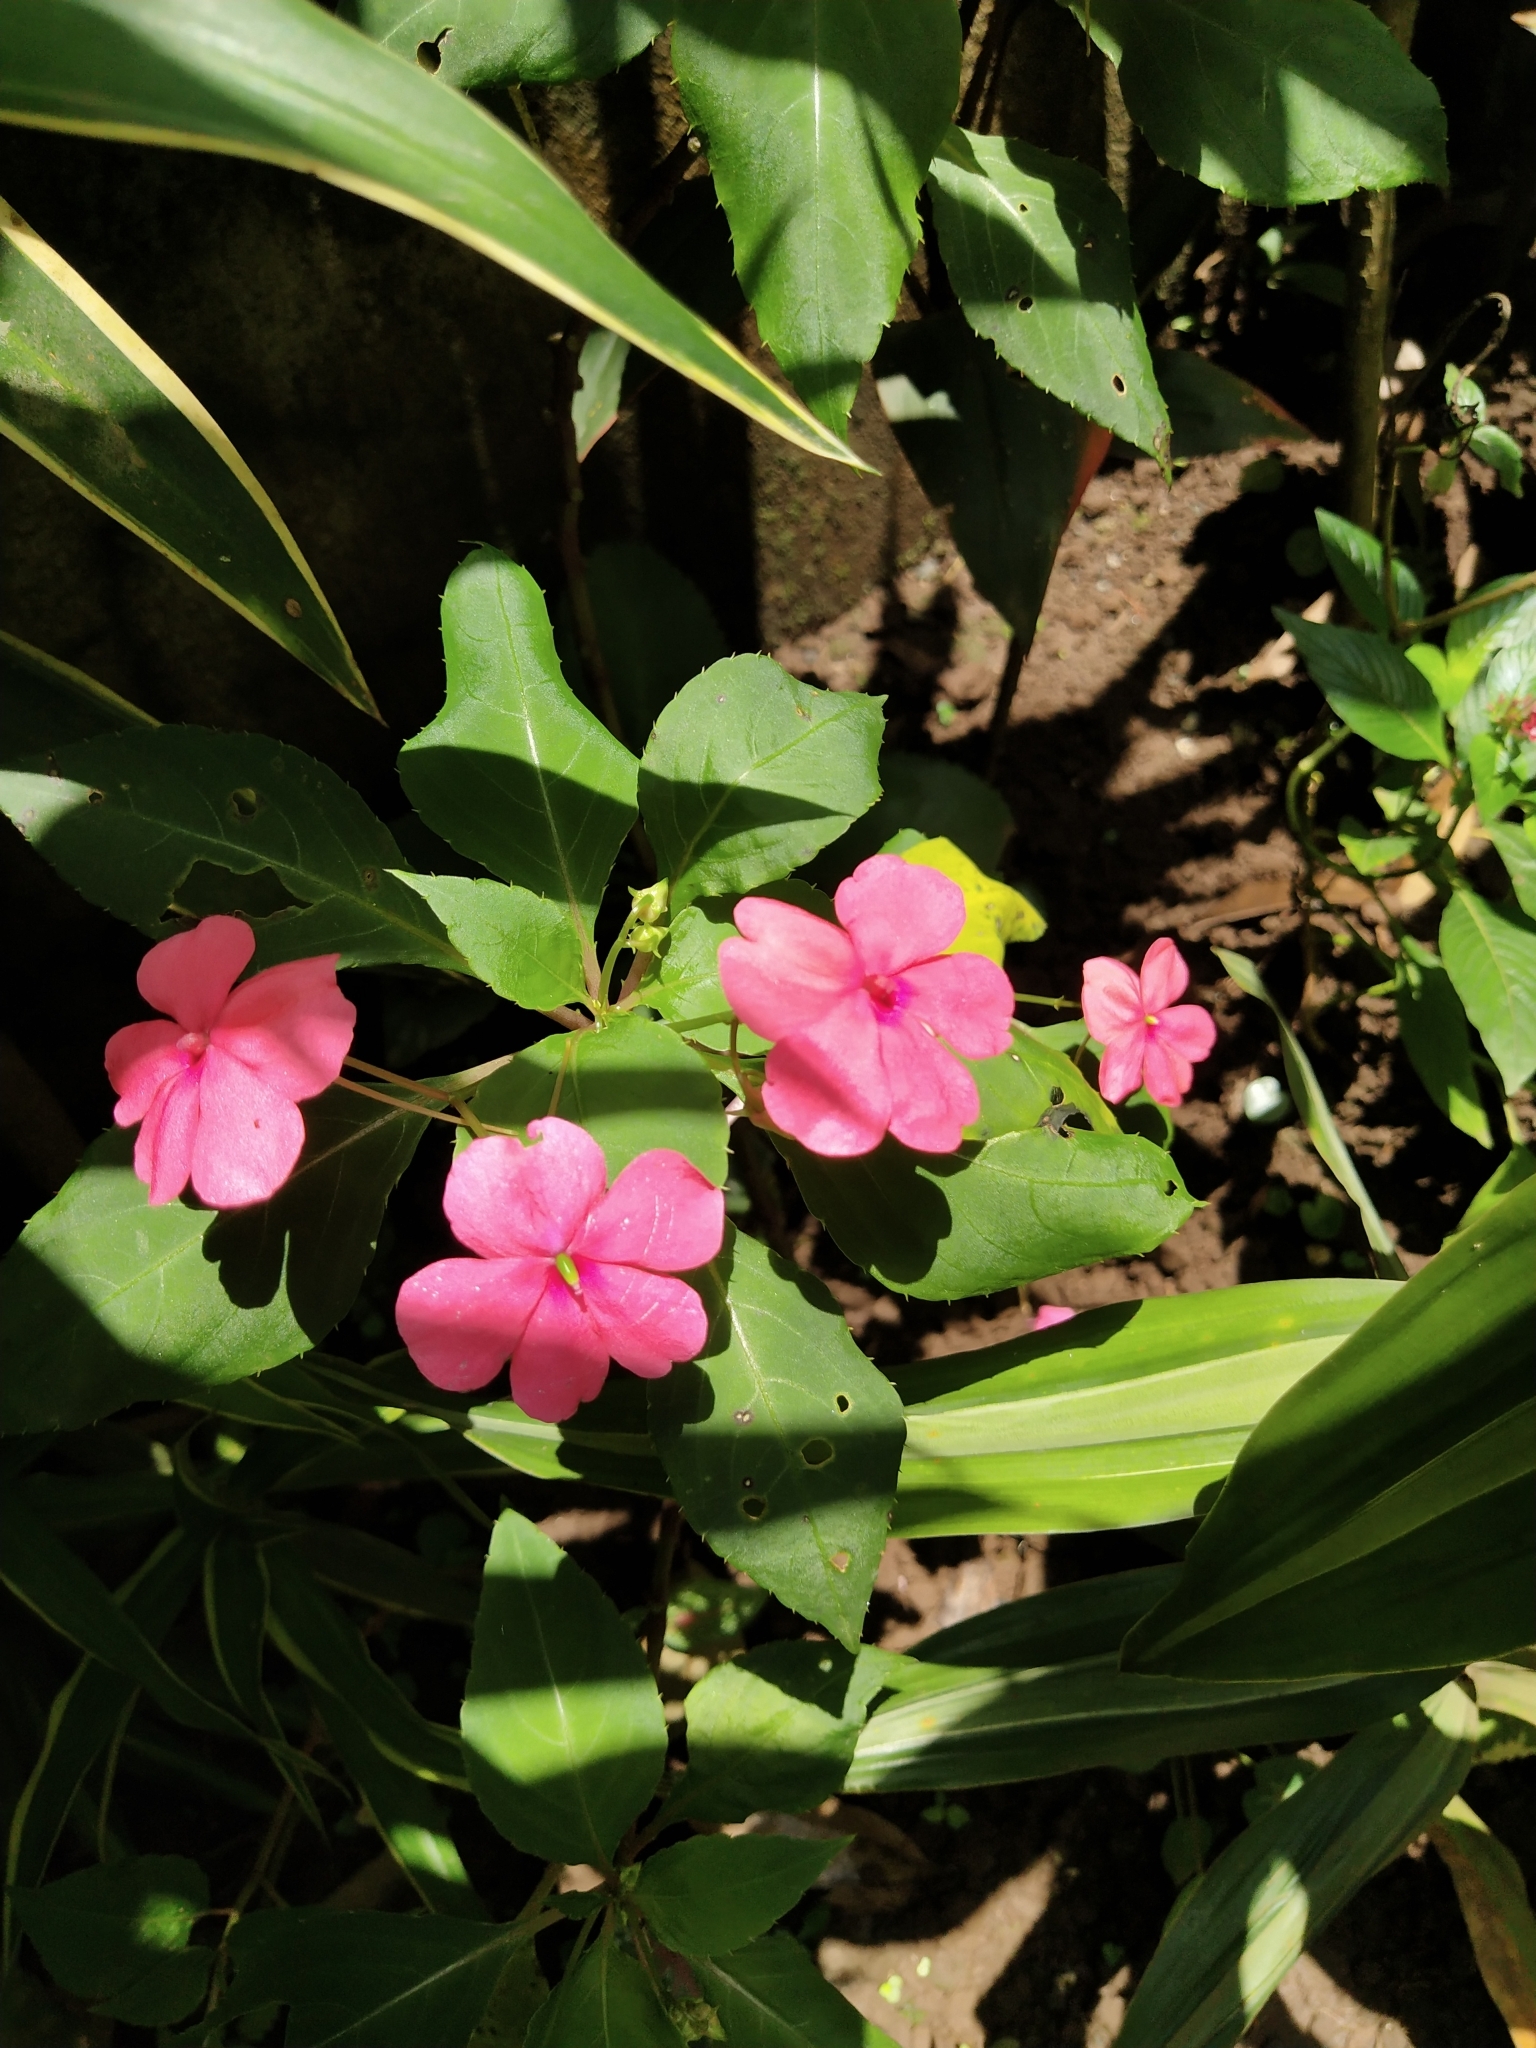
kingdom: Plantae
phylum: Tracheophyta
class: Magnoliopsida
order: Ericales
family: Balsaminaceae
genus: Impatiens
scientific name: Impatiens walleriana
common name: Buzzy lizzy
